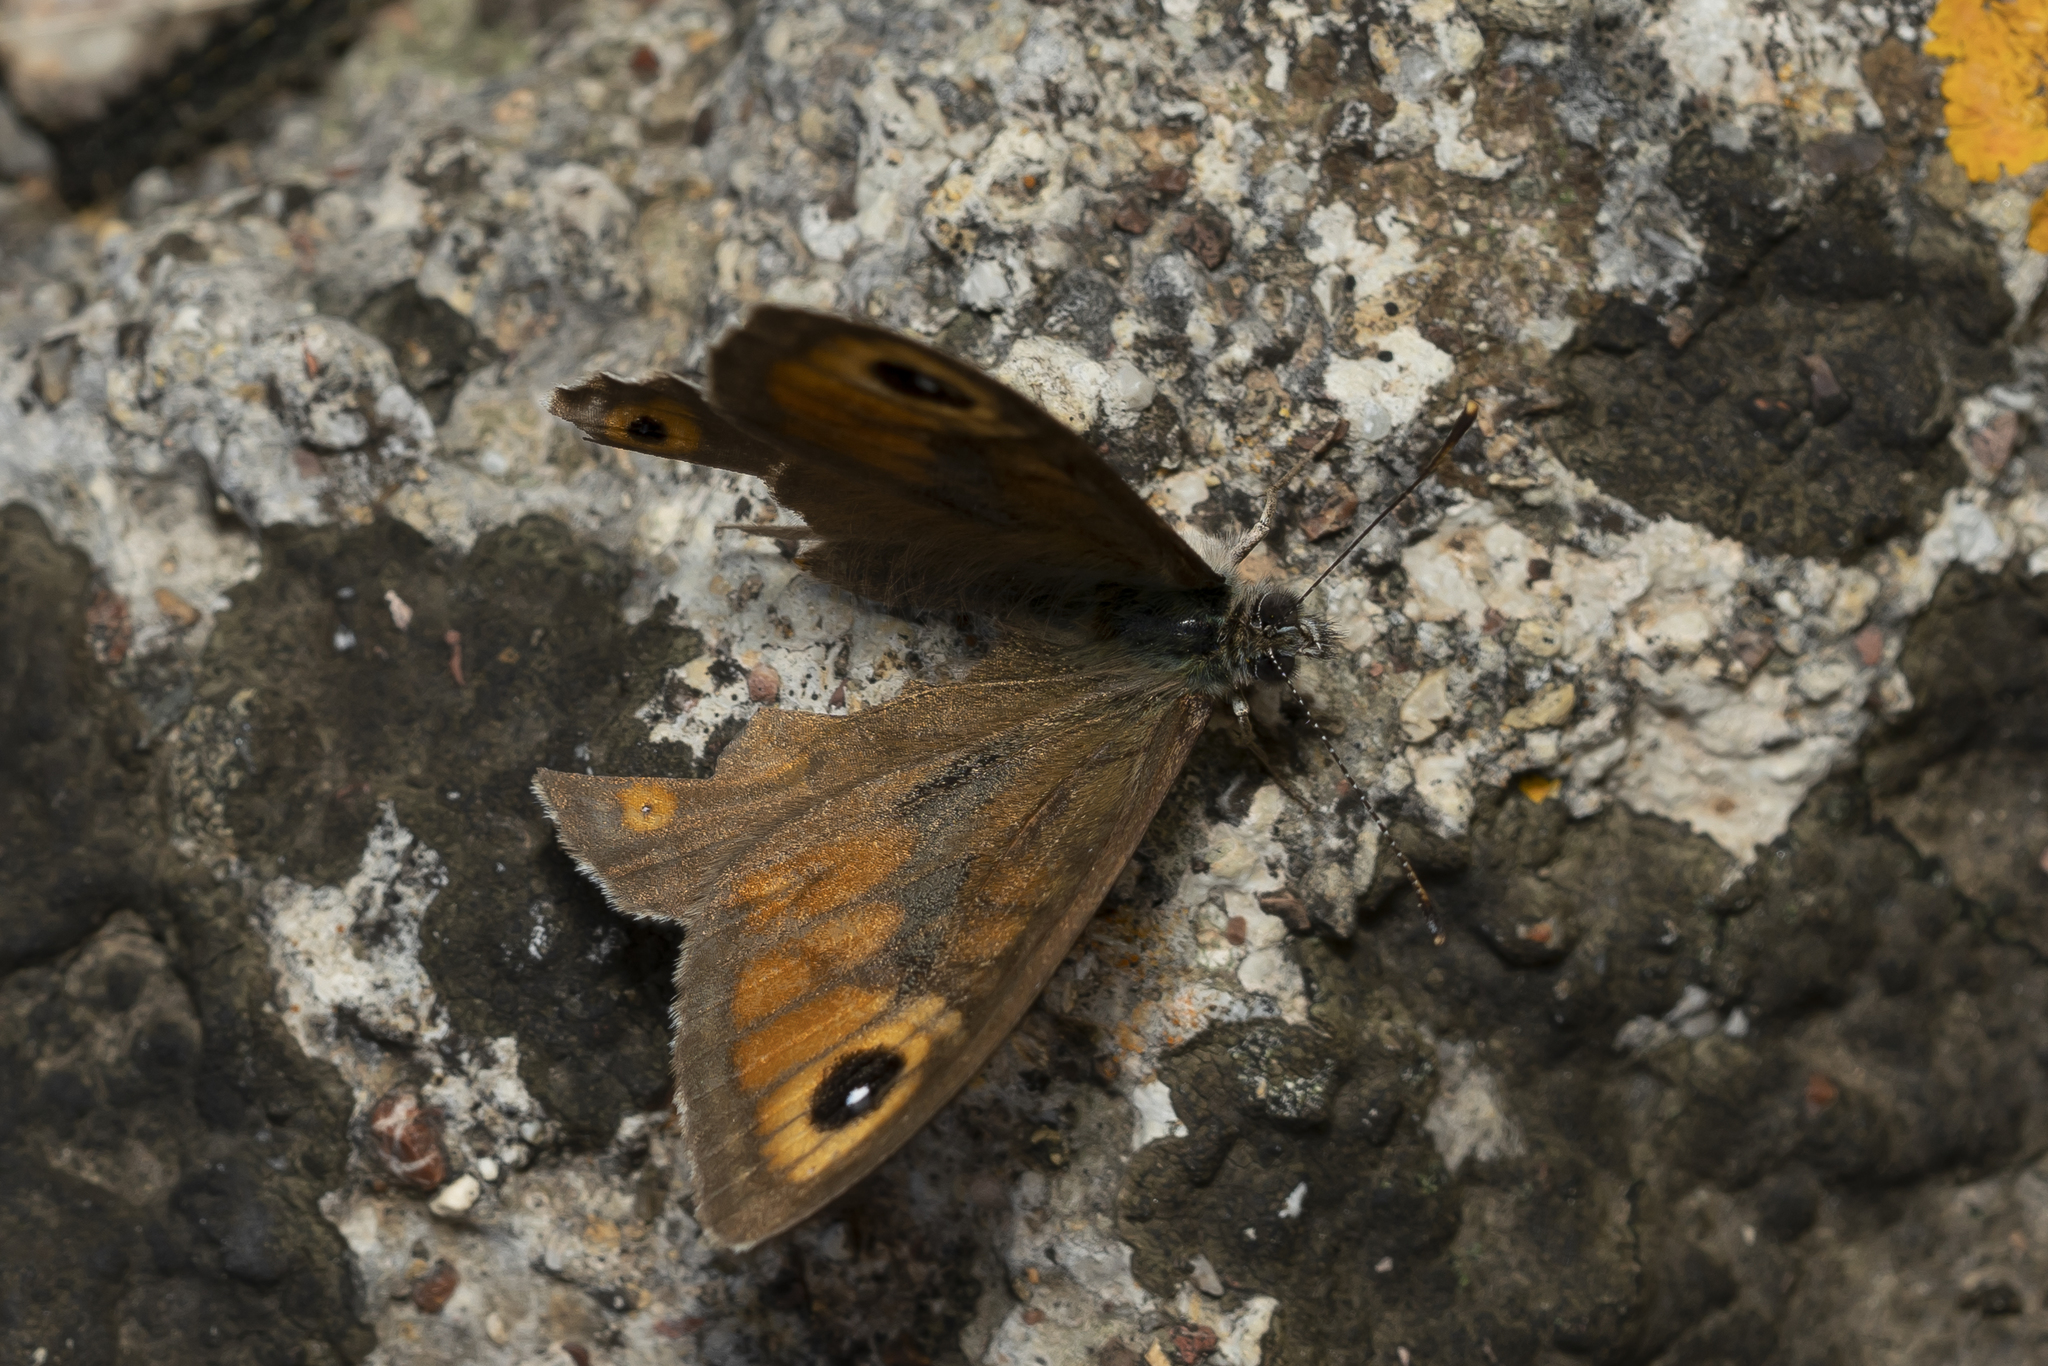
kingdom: Animalia
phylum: Arthropoda
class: Insecta
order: Lepidoptera
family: Nymphalidae
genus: Pararge
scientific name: Pararge Lasiommata maera
